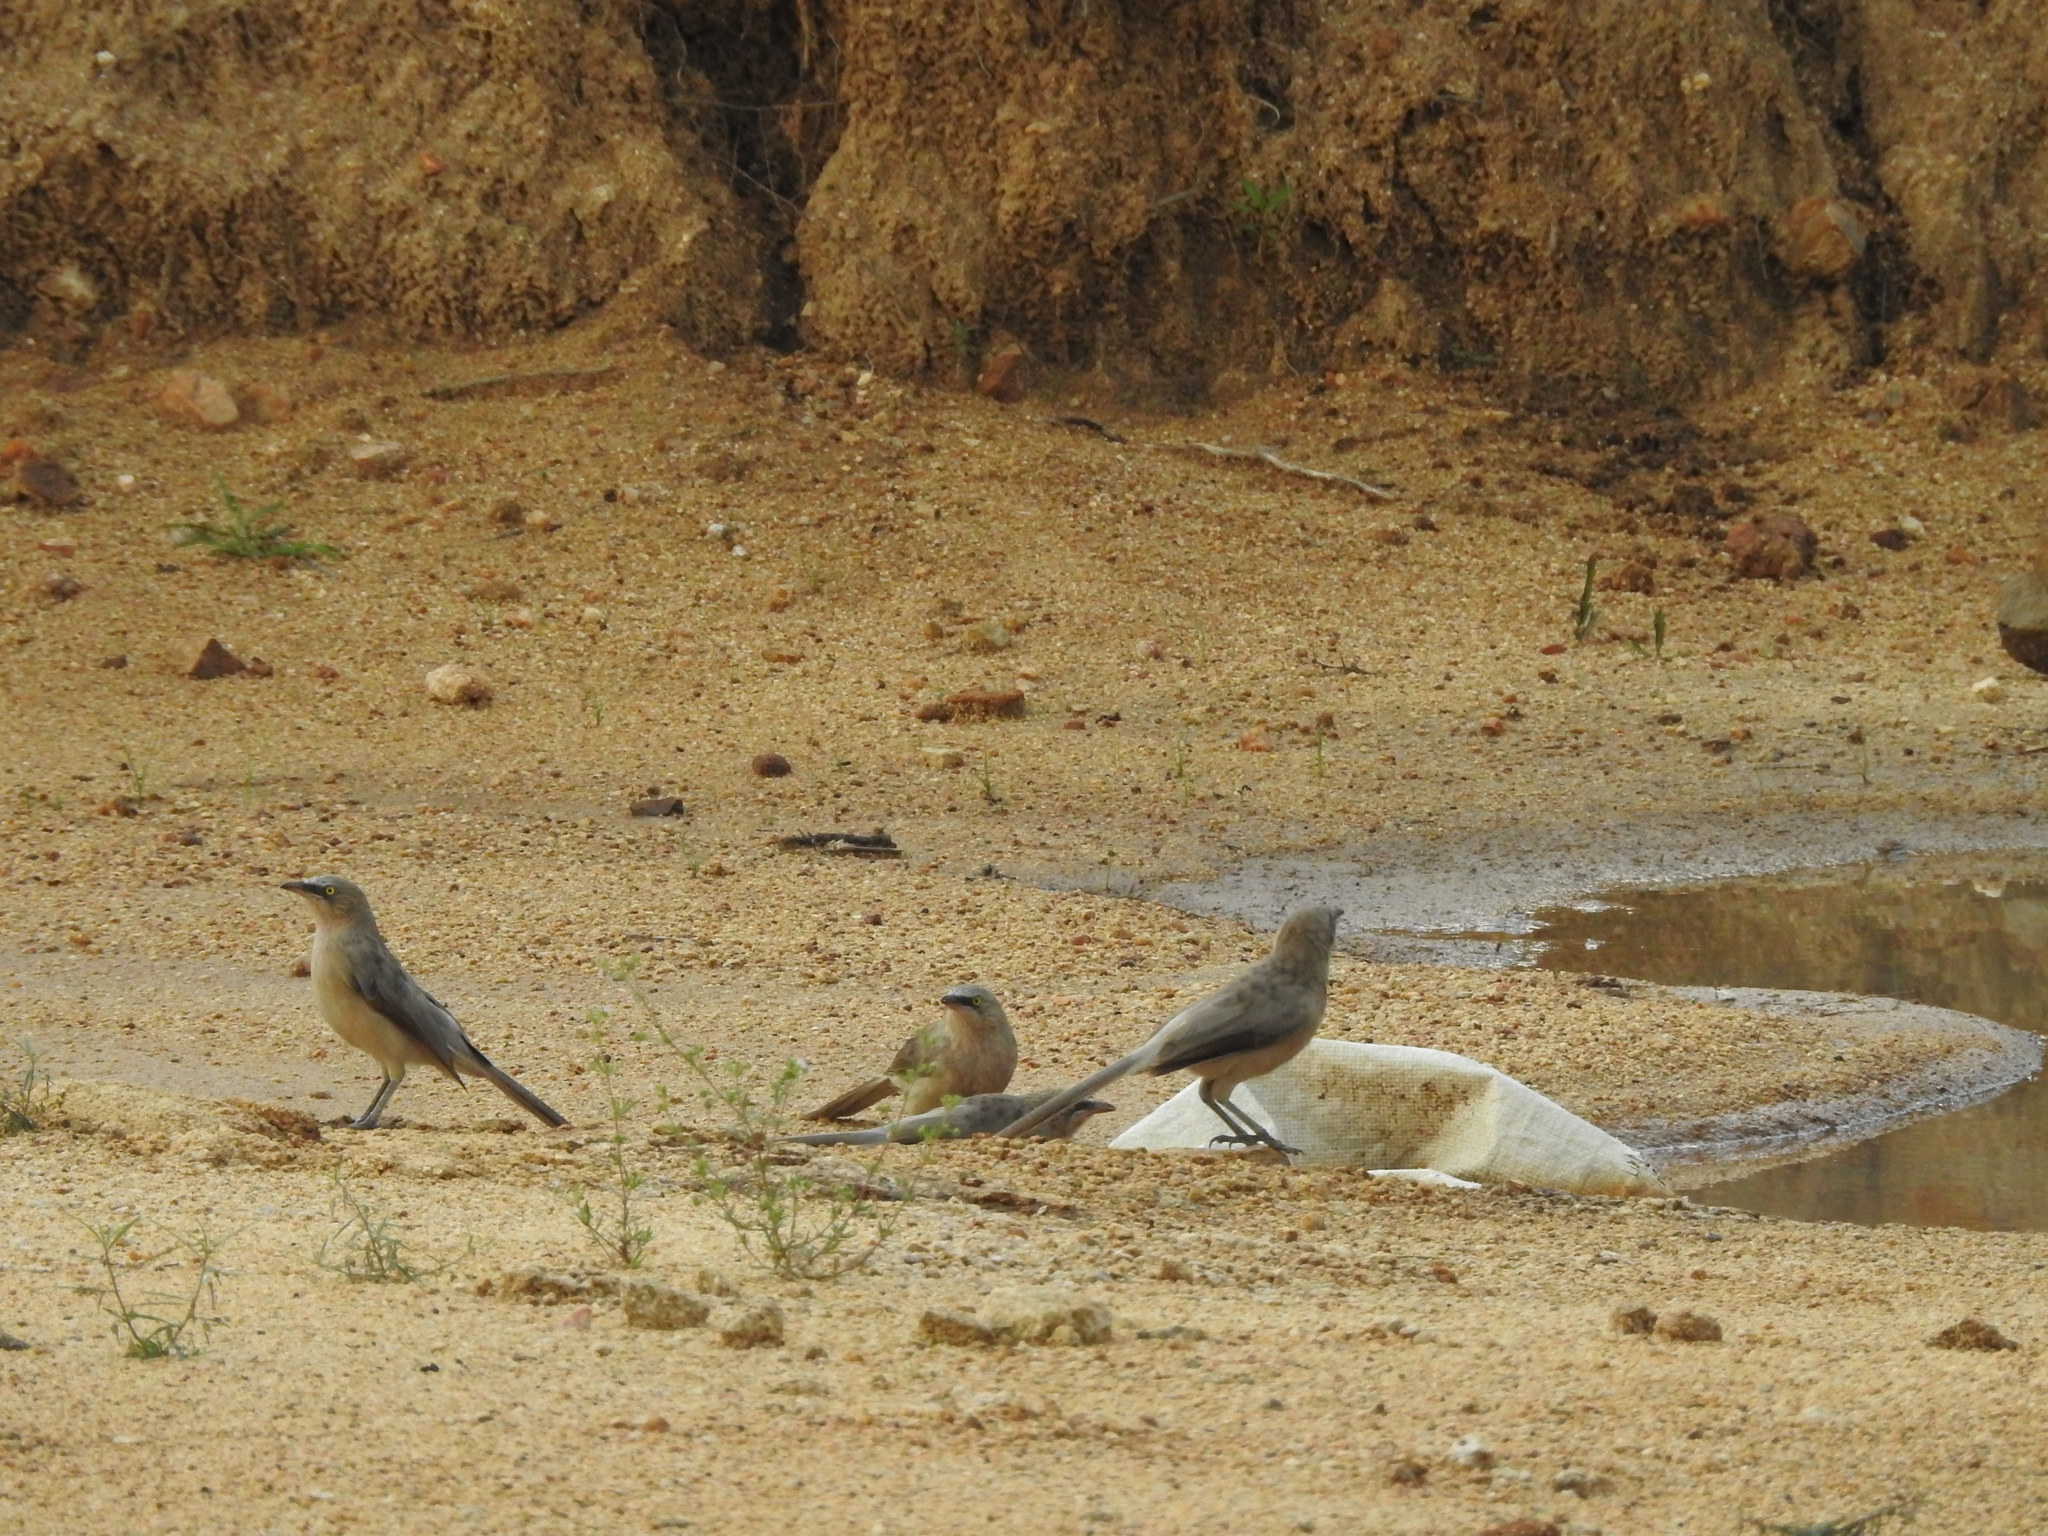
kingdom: Animalia
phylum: Chordata
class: Aves
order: Passeriformes
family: Leiothrichidae
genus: Turdoides
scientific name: Turdoides malcolmi
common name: Large grey babbler
